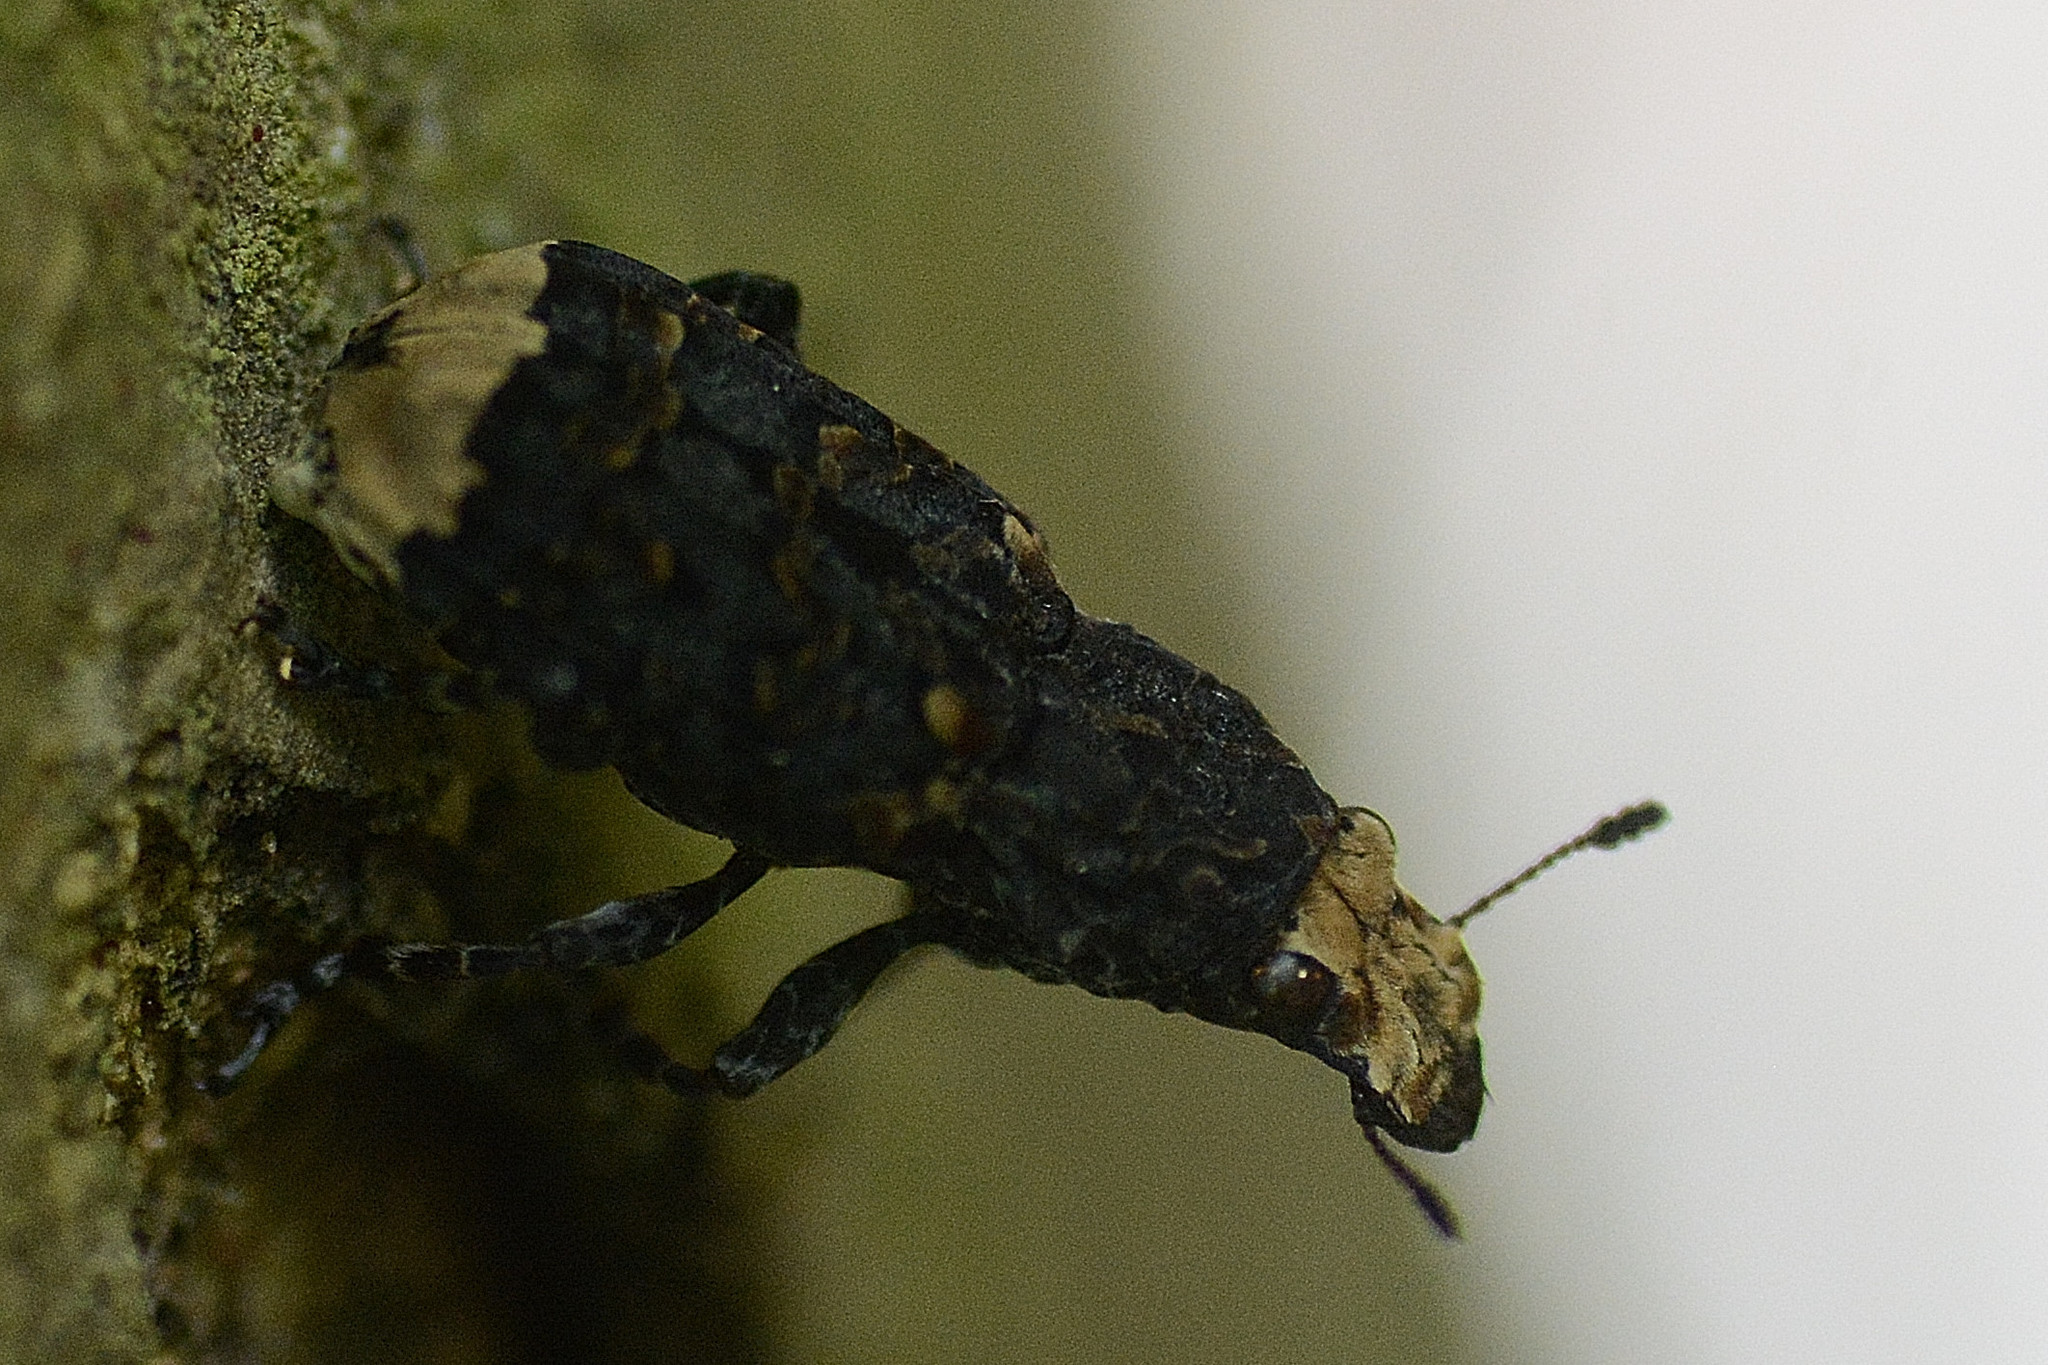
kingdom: Animalia
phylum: Arthropoda
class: Insecta
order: Coleoptera
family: Anthribidae
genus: Platyrhinus
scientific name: Platyrhinus resinosus
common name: Cramp-ball fungus weevil
